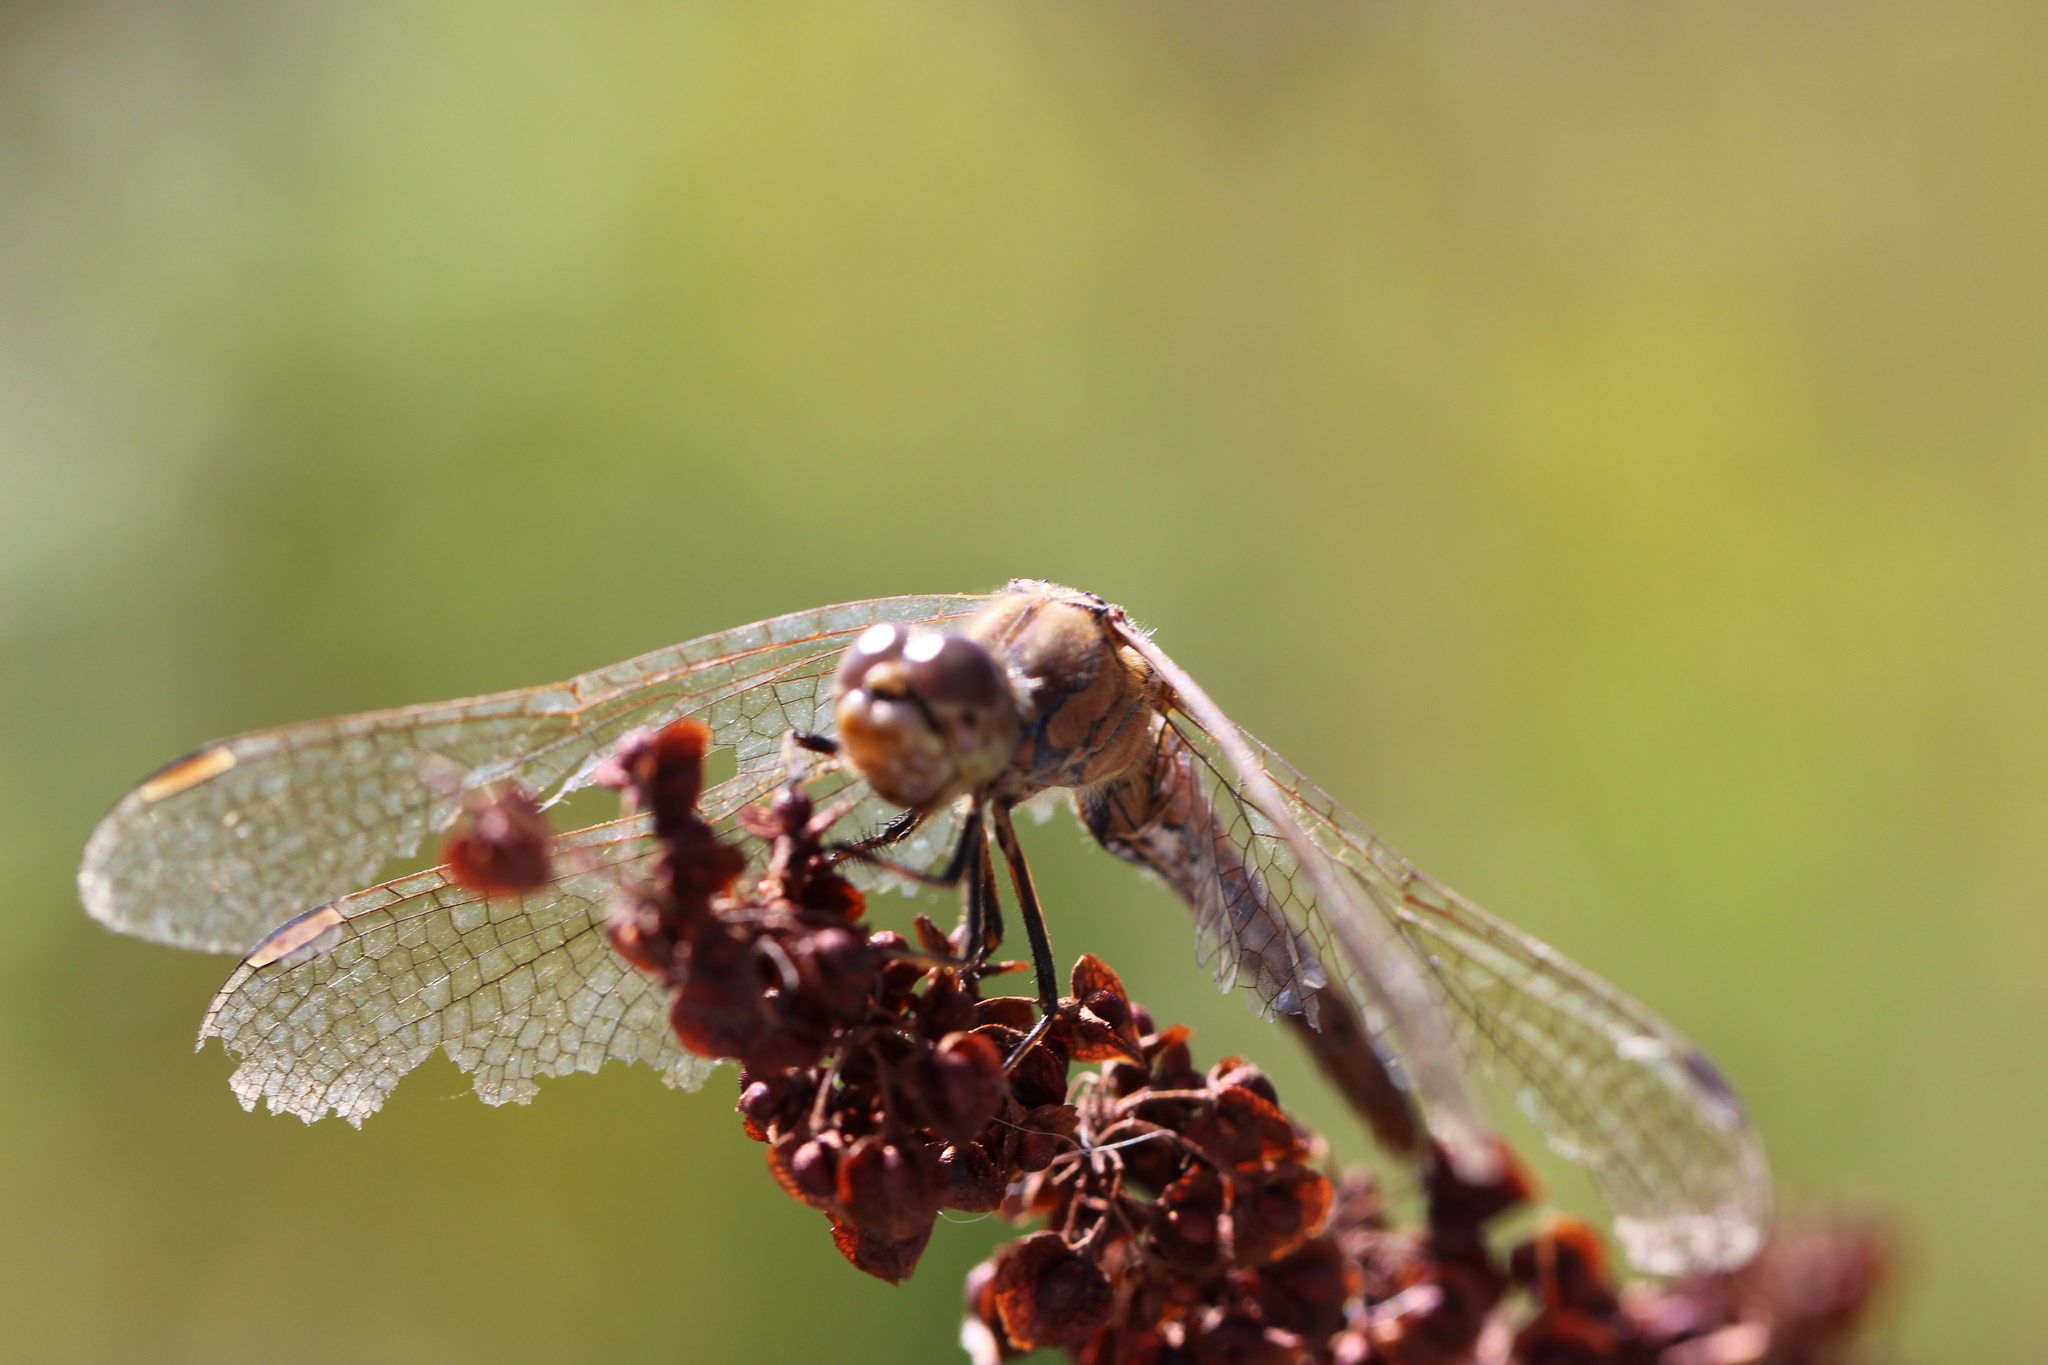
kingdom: Animalia
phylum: Arthropoda
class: Insecta
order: Odonata
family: Libellulidae
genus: Sympetrum
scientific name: Sympetrum vulgatum
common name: Vagrant darter
